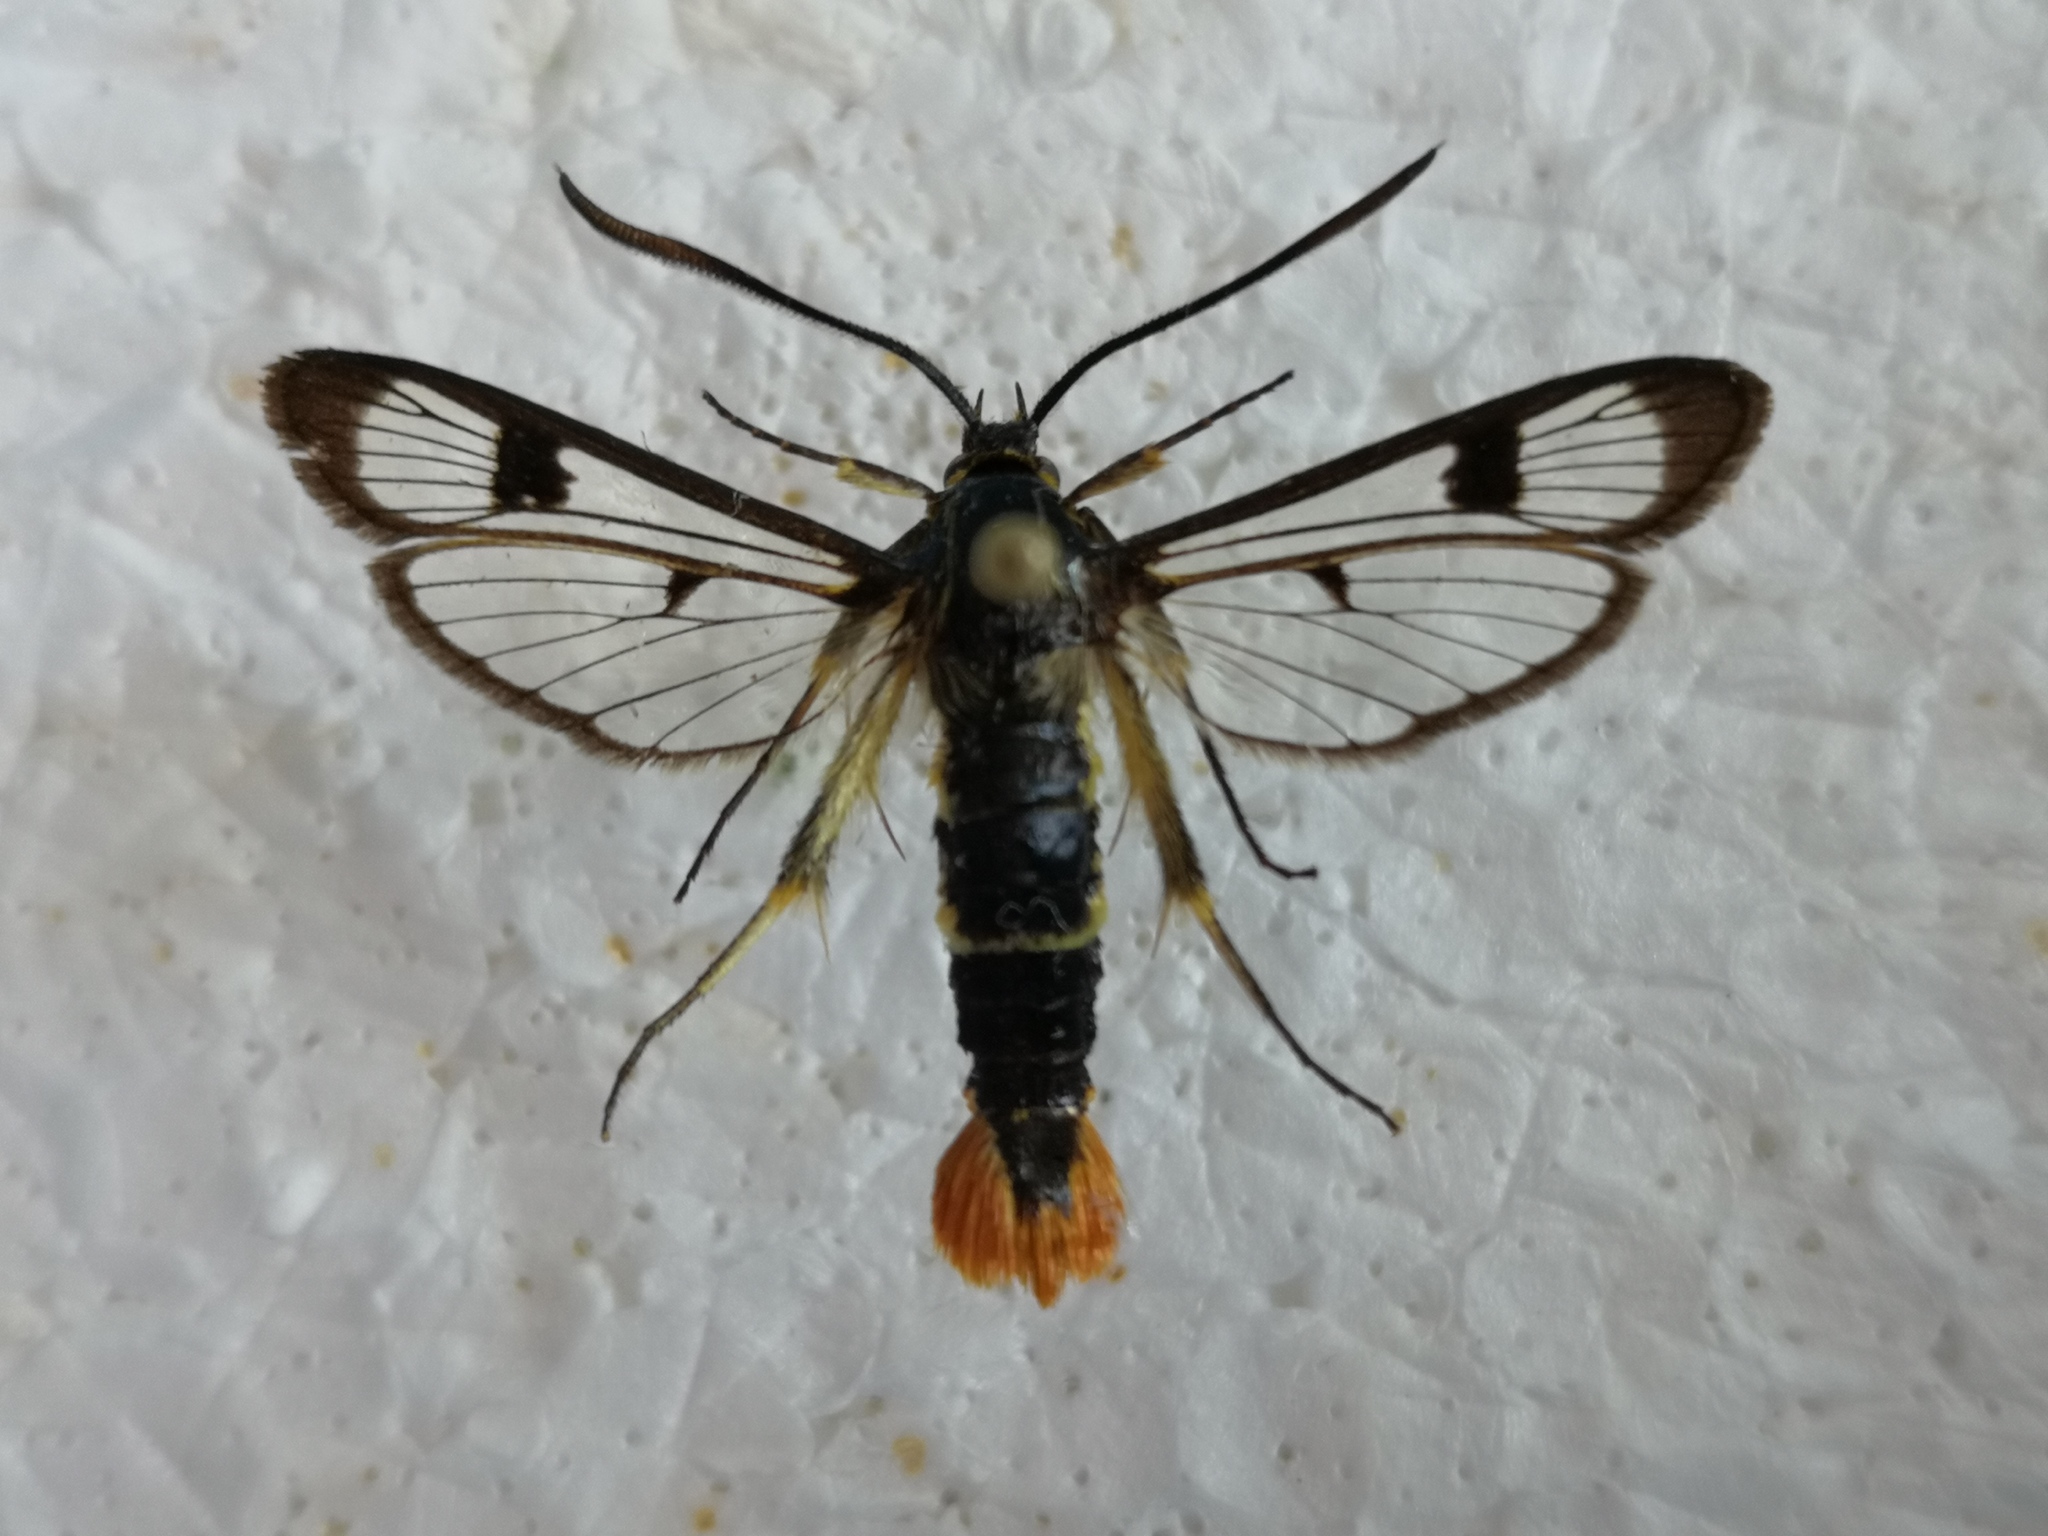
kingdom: Animalia
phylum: Arthropoda
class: Insecta
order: Lepidoptera
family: Sesiidae
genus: Synanthedon
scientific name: Synanthedon scoliaeformis
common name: Welsh clearwing
